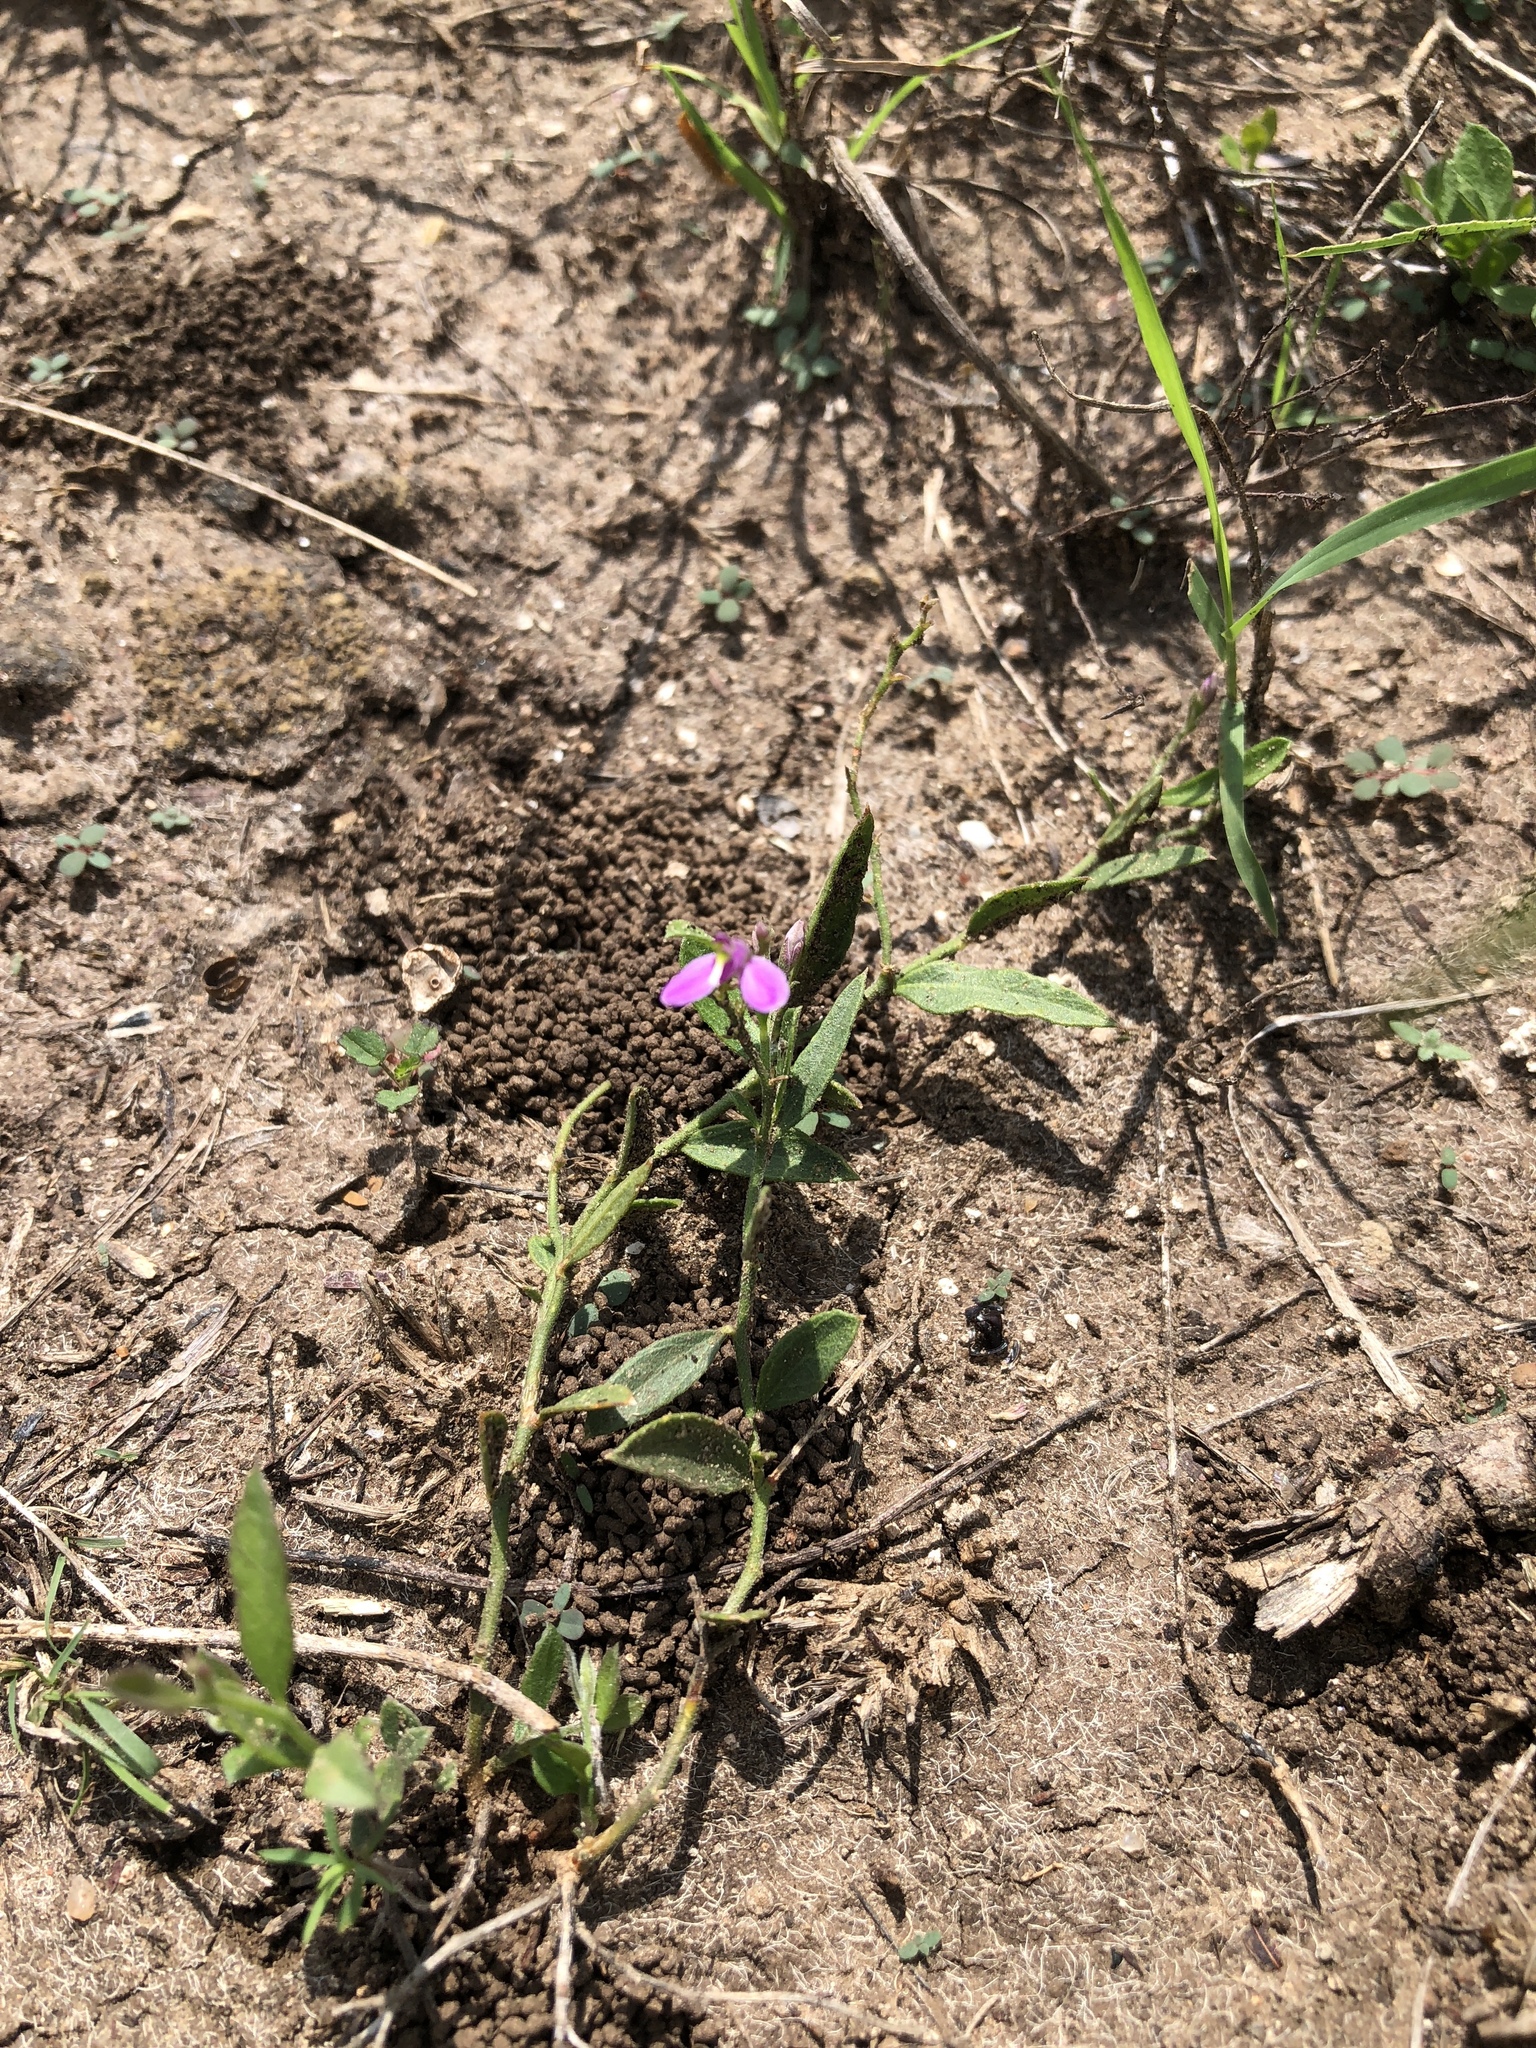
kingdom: Plantae
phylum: Tracheophyta
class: Magnoliopsida
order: Fabales
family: Polygalaceae
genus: Rhinotropis
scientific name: Rhinotropis nitida
